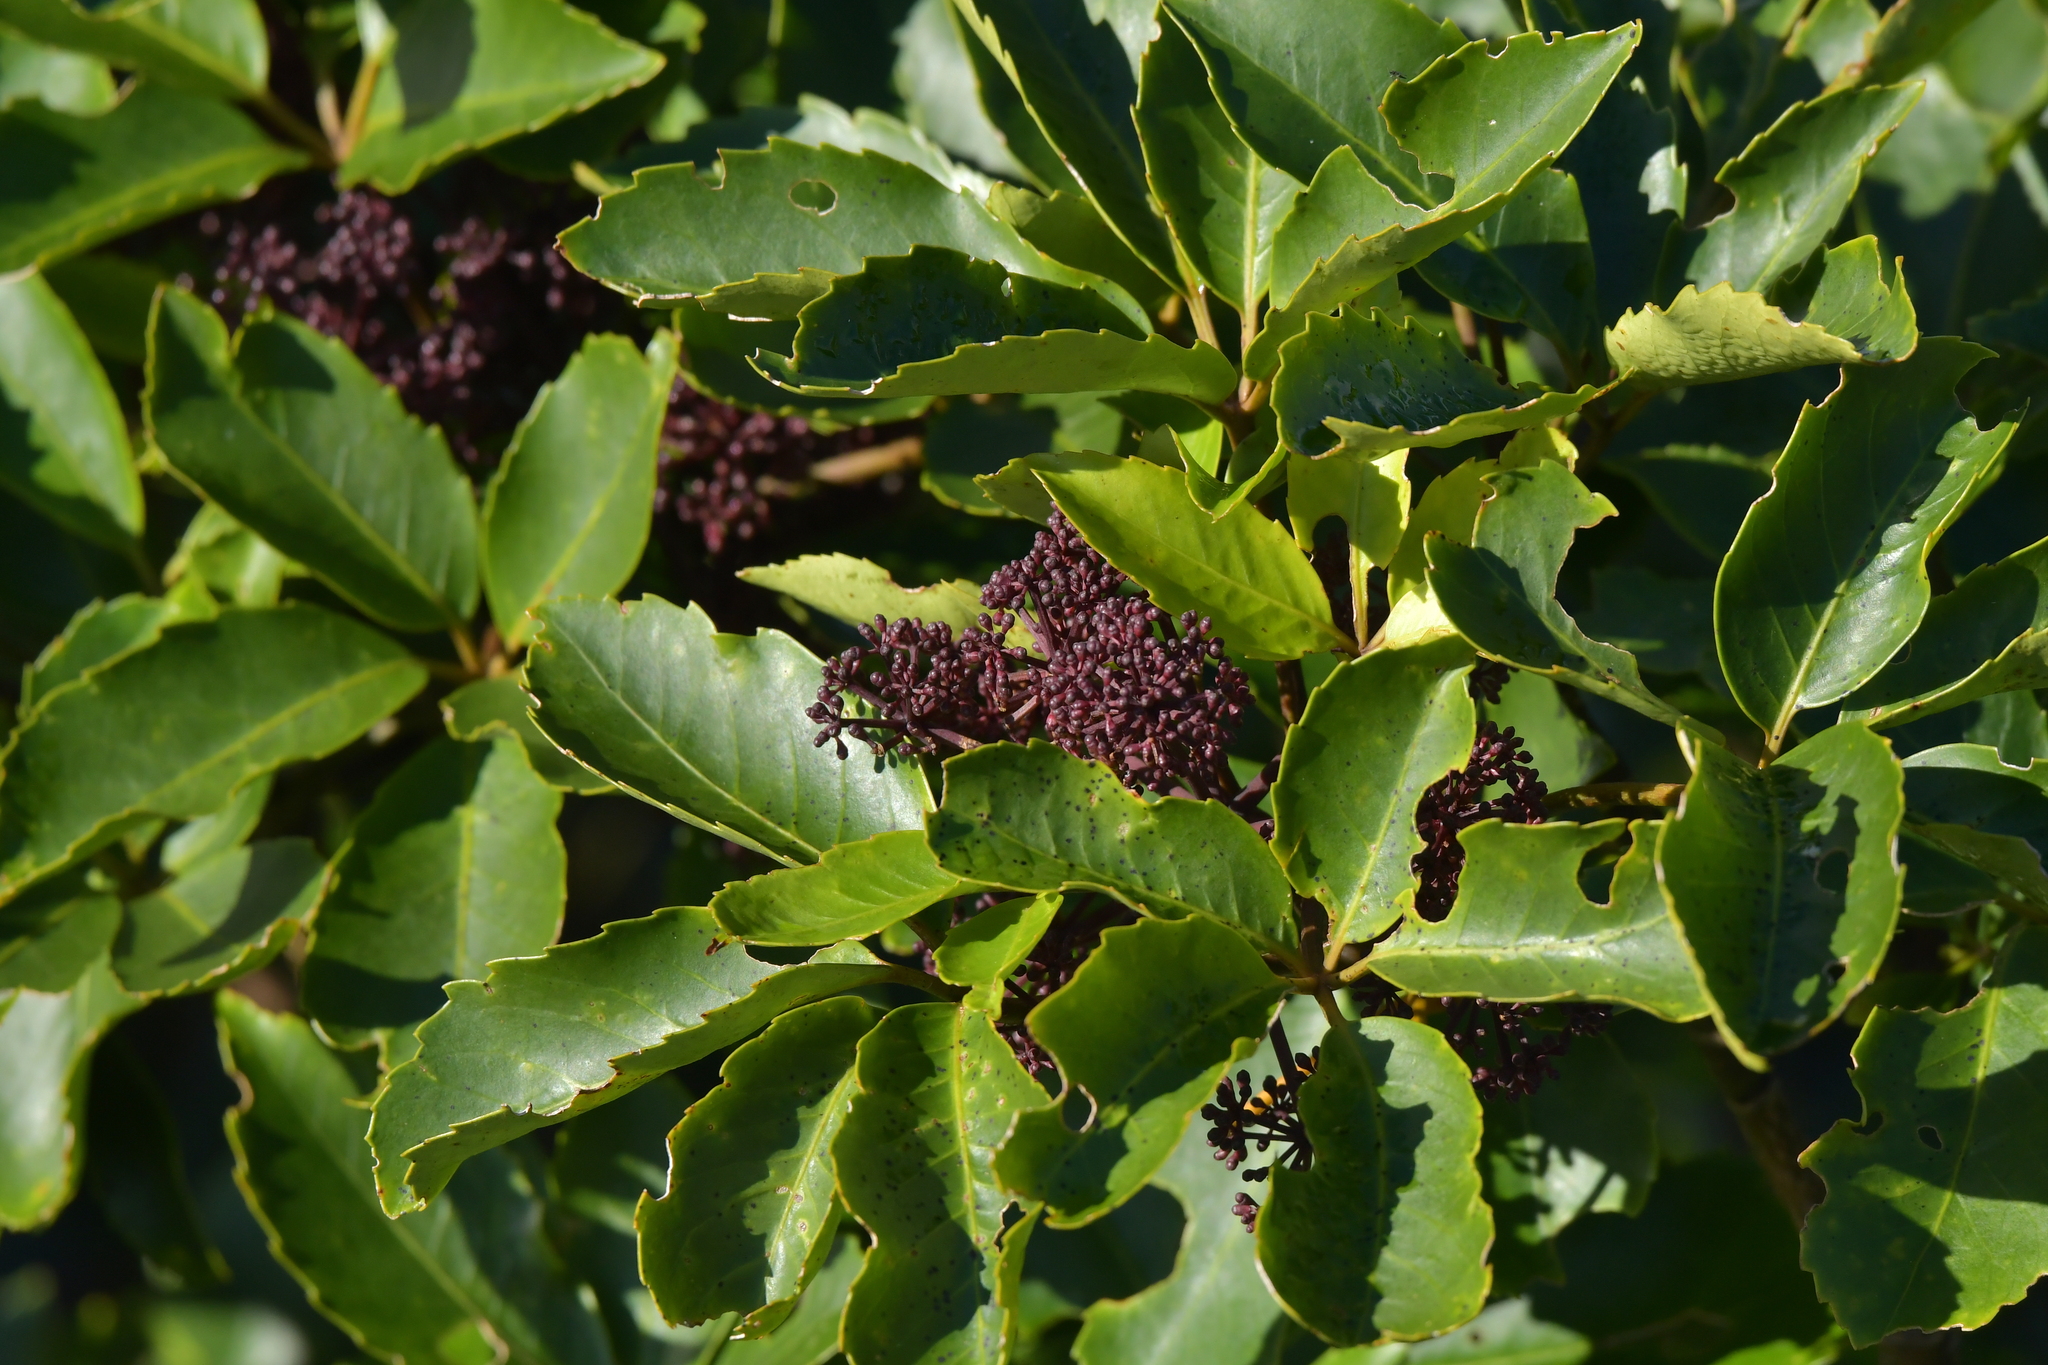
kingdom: Plantae
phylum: Tracheophyta
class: Magnoliopsida
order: Apiales
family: Araliaceae
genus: Neopanax
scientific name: Neopanax arboreus
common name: Five-fingers
